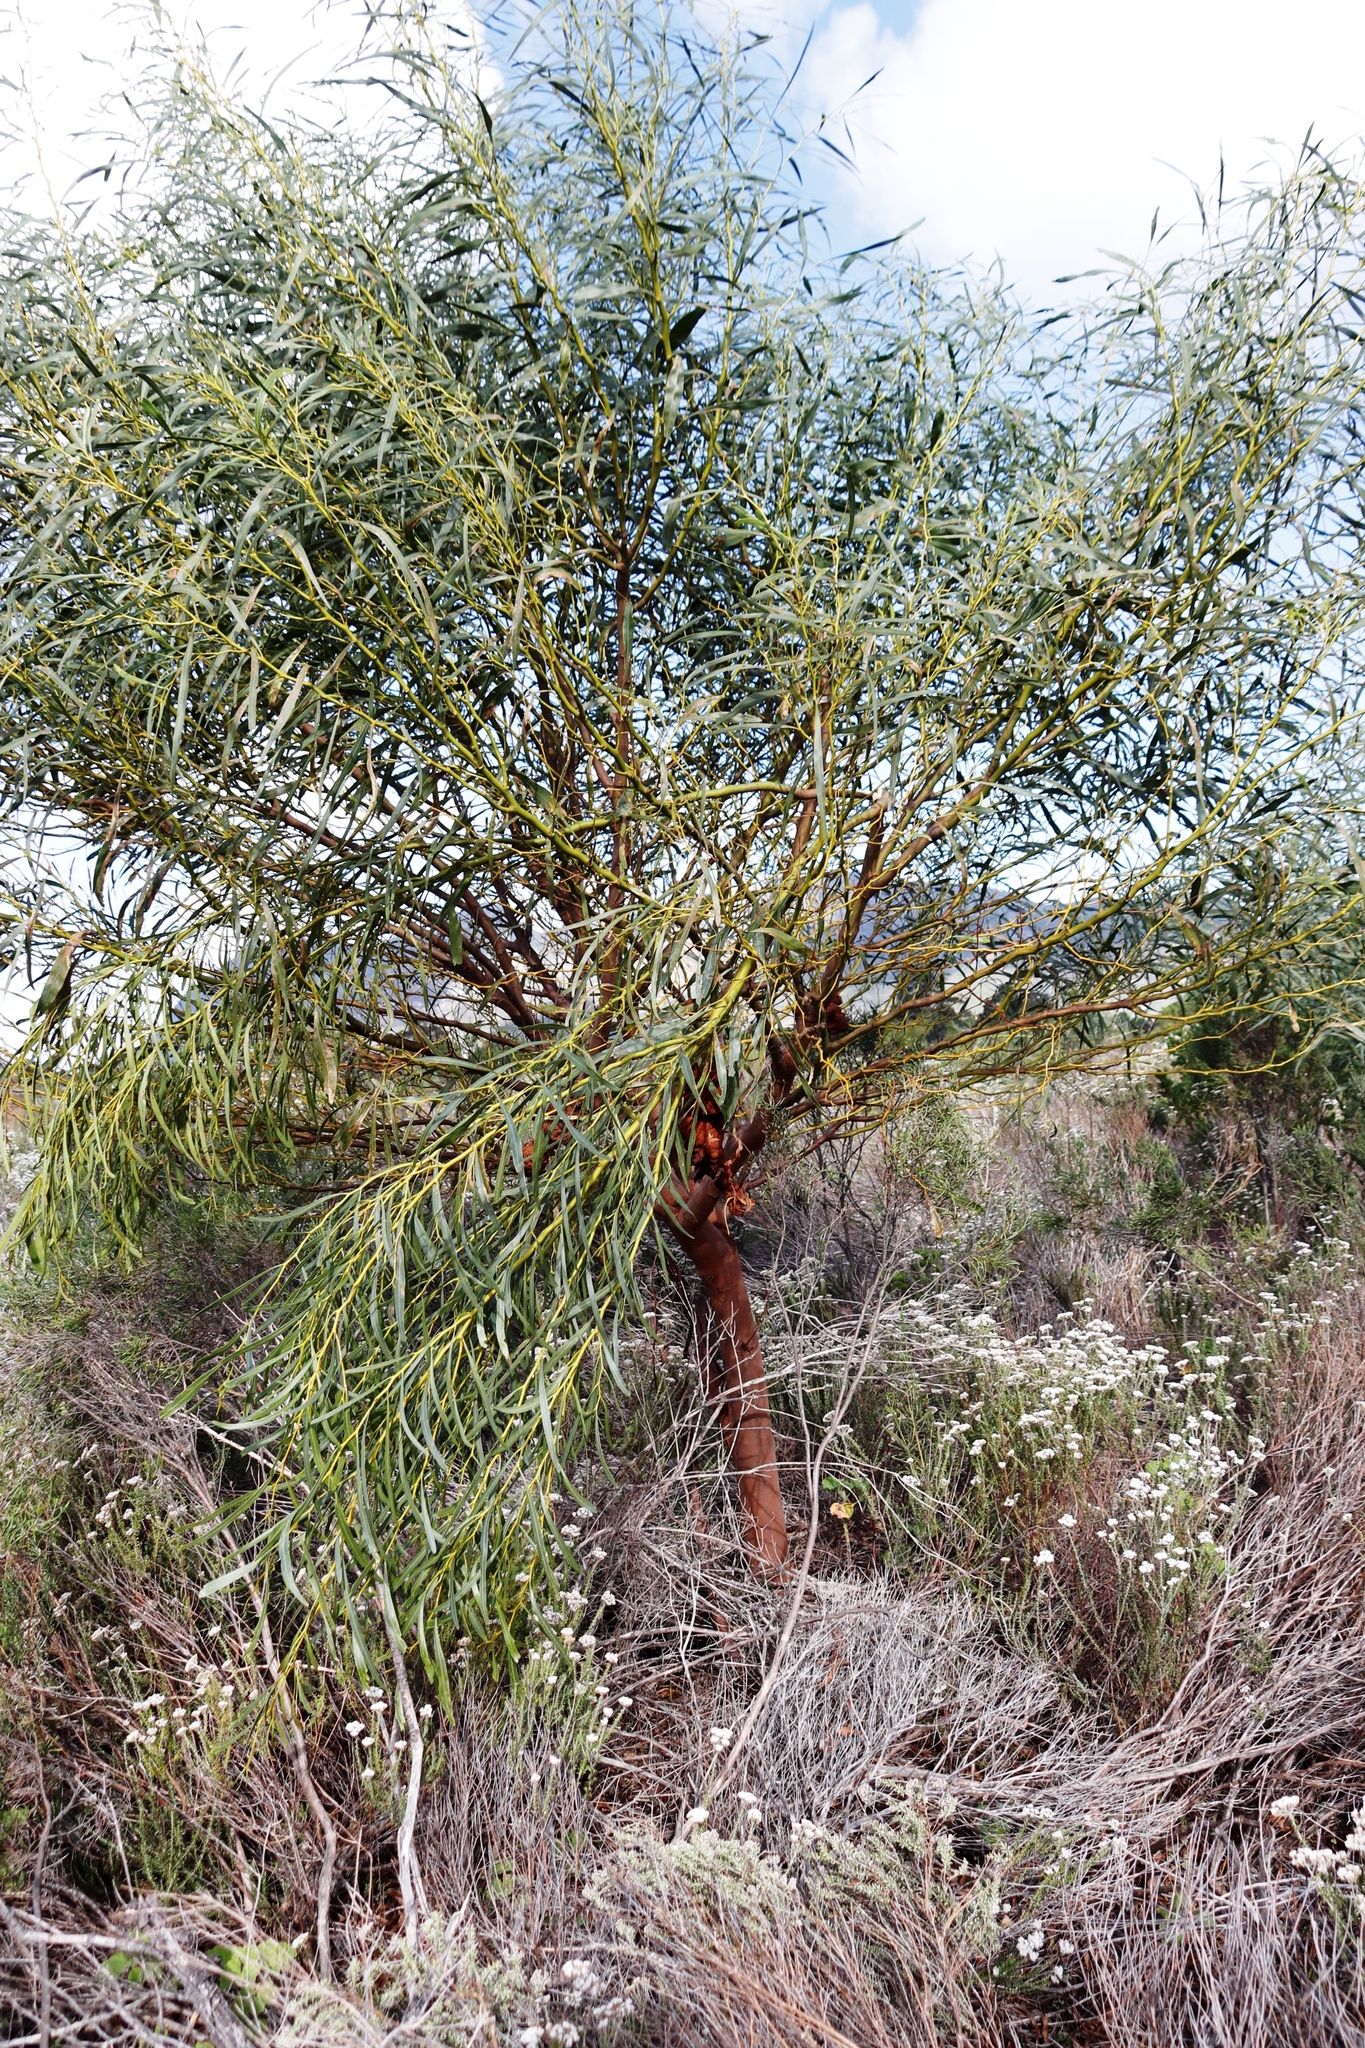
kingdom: Plantae
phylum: Tracheophyta
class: Magnoliopsida
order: Fabales
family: Fabaceae
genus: Acacia
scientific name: Acacia saligna
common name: Orange wattle
